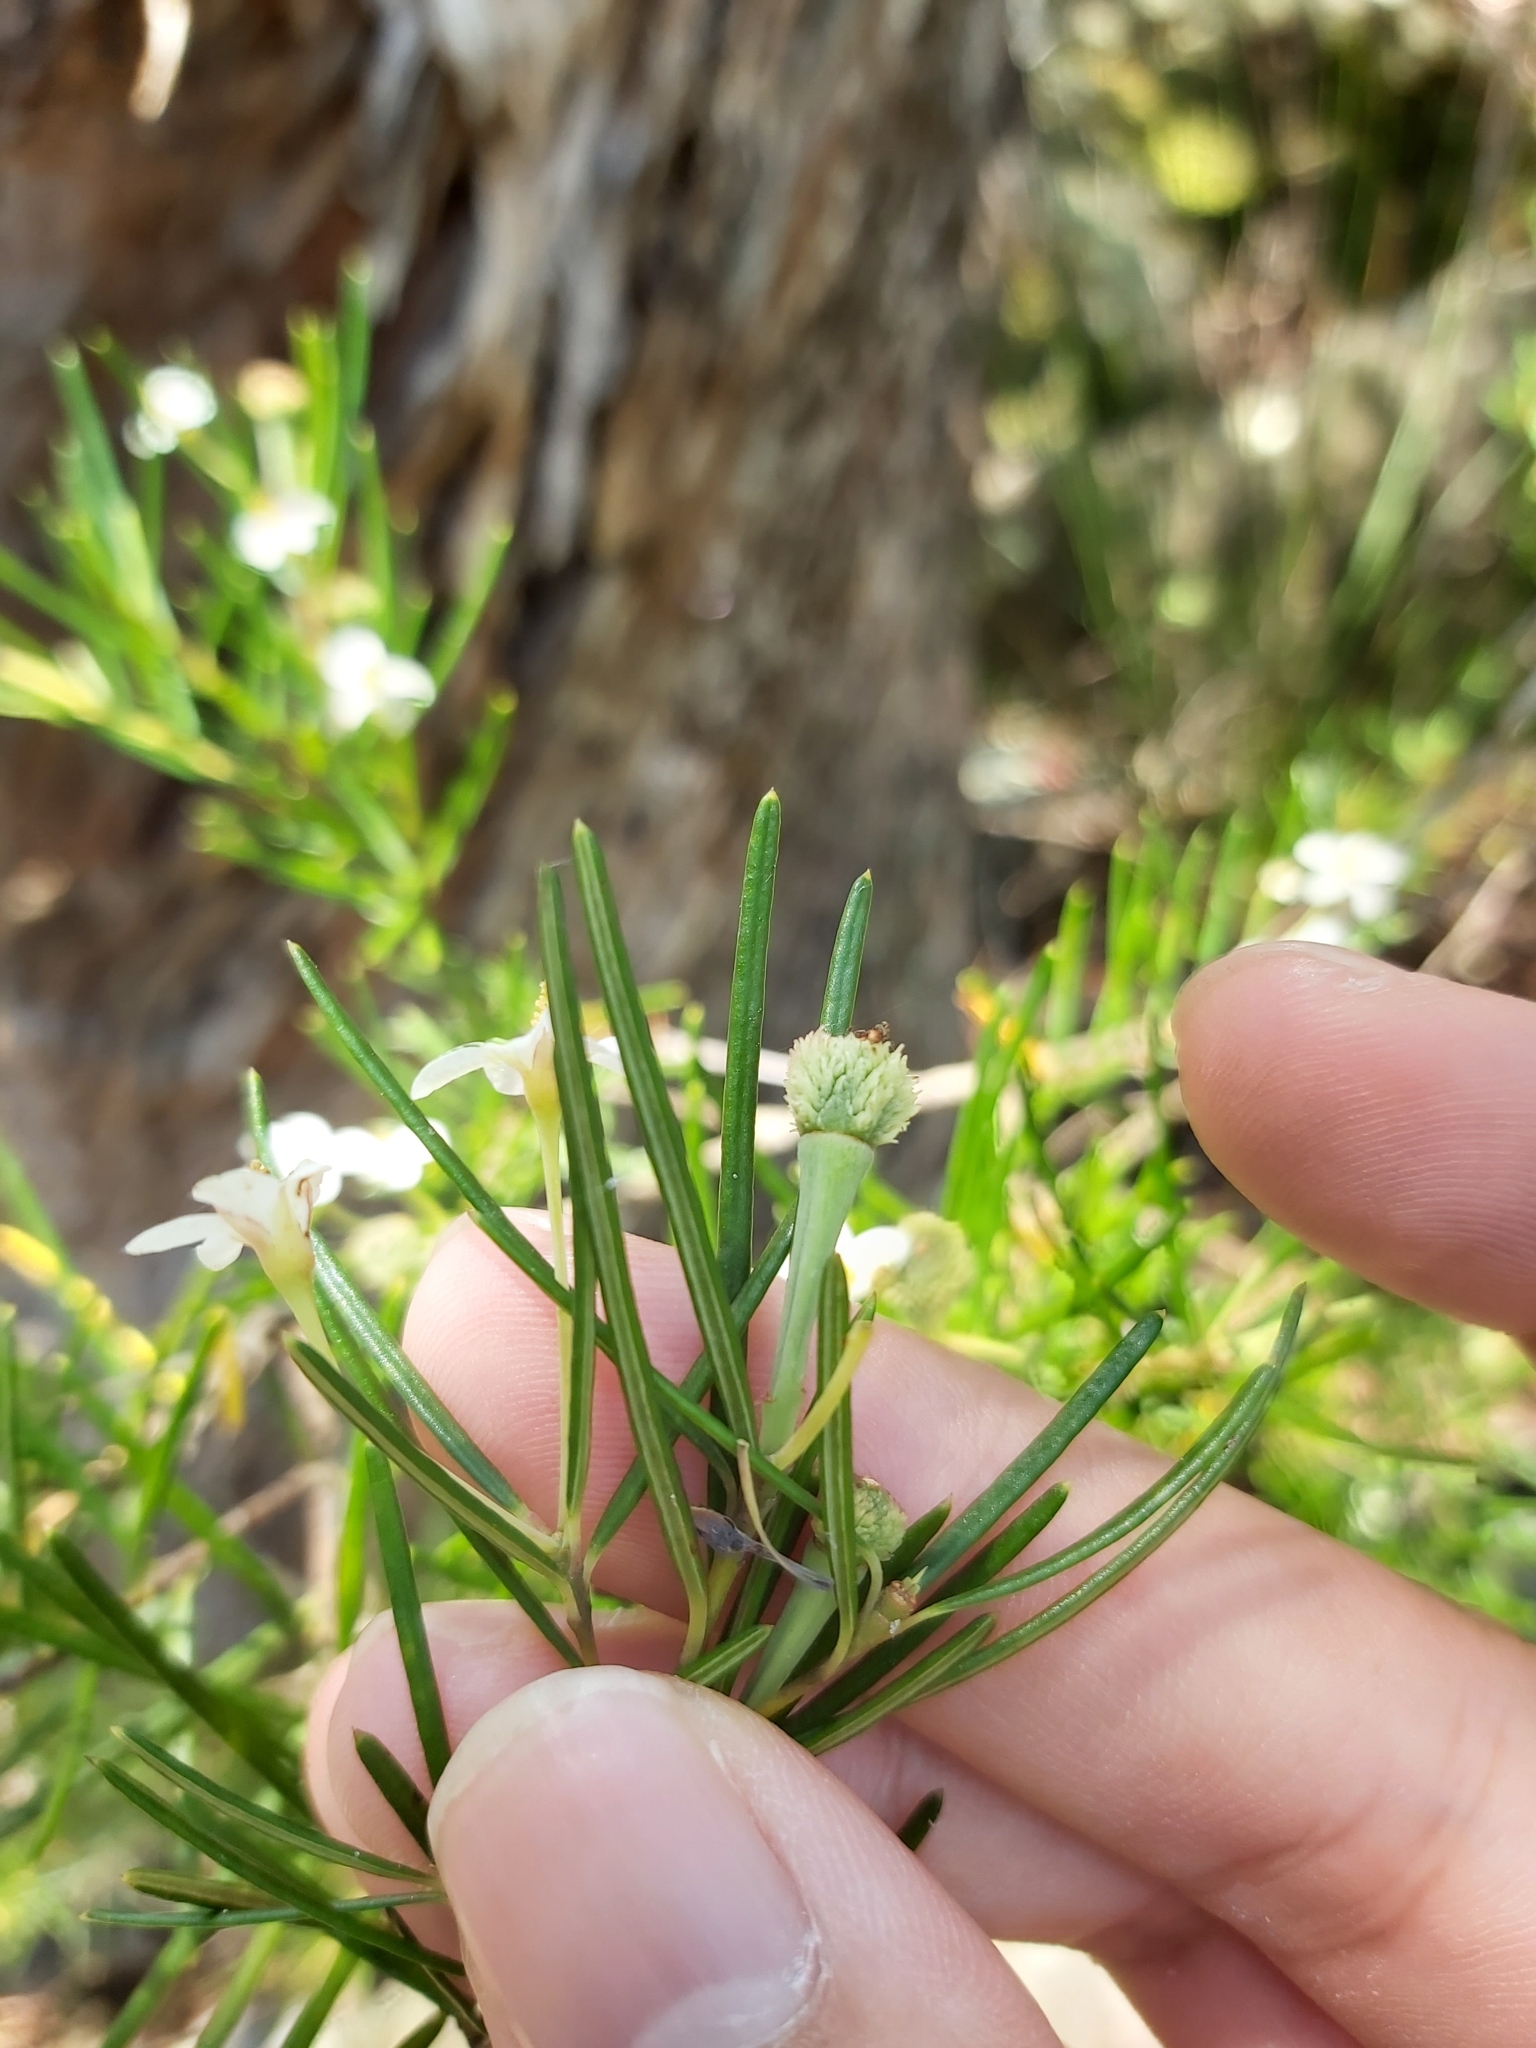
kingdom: Plantae
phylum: Tracheophyta
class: Magnoliopsida
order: Malpighiales
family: Euphorbiaceae
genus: Ricinocarpos
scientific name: Ricinocarpos pinifolius
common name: Weddingbush
